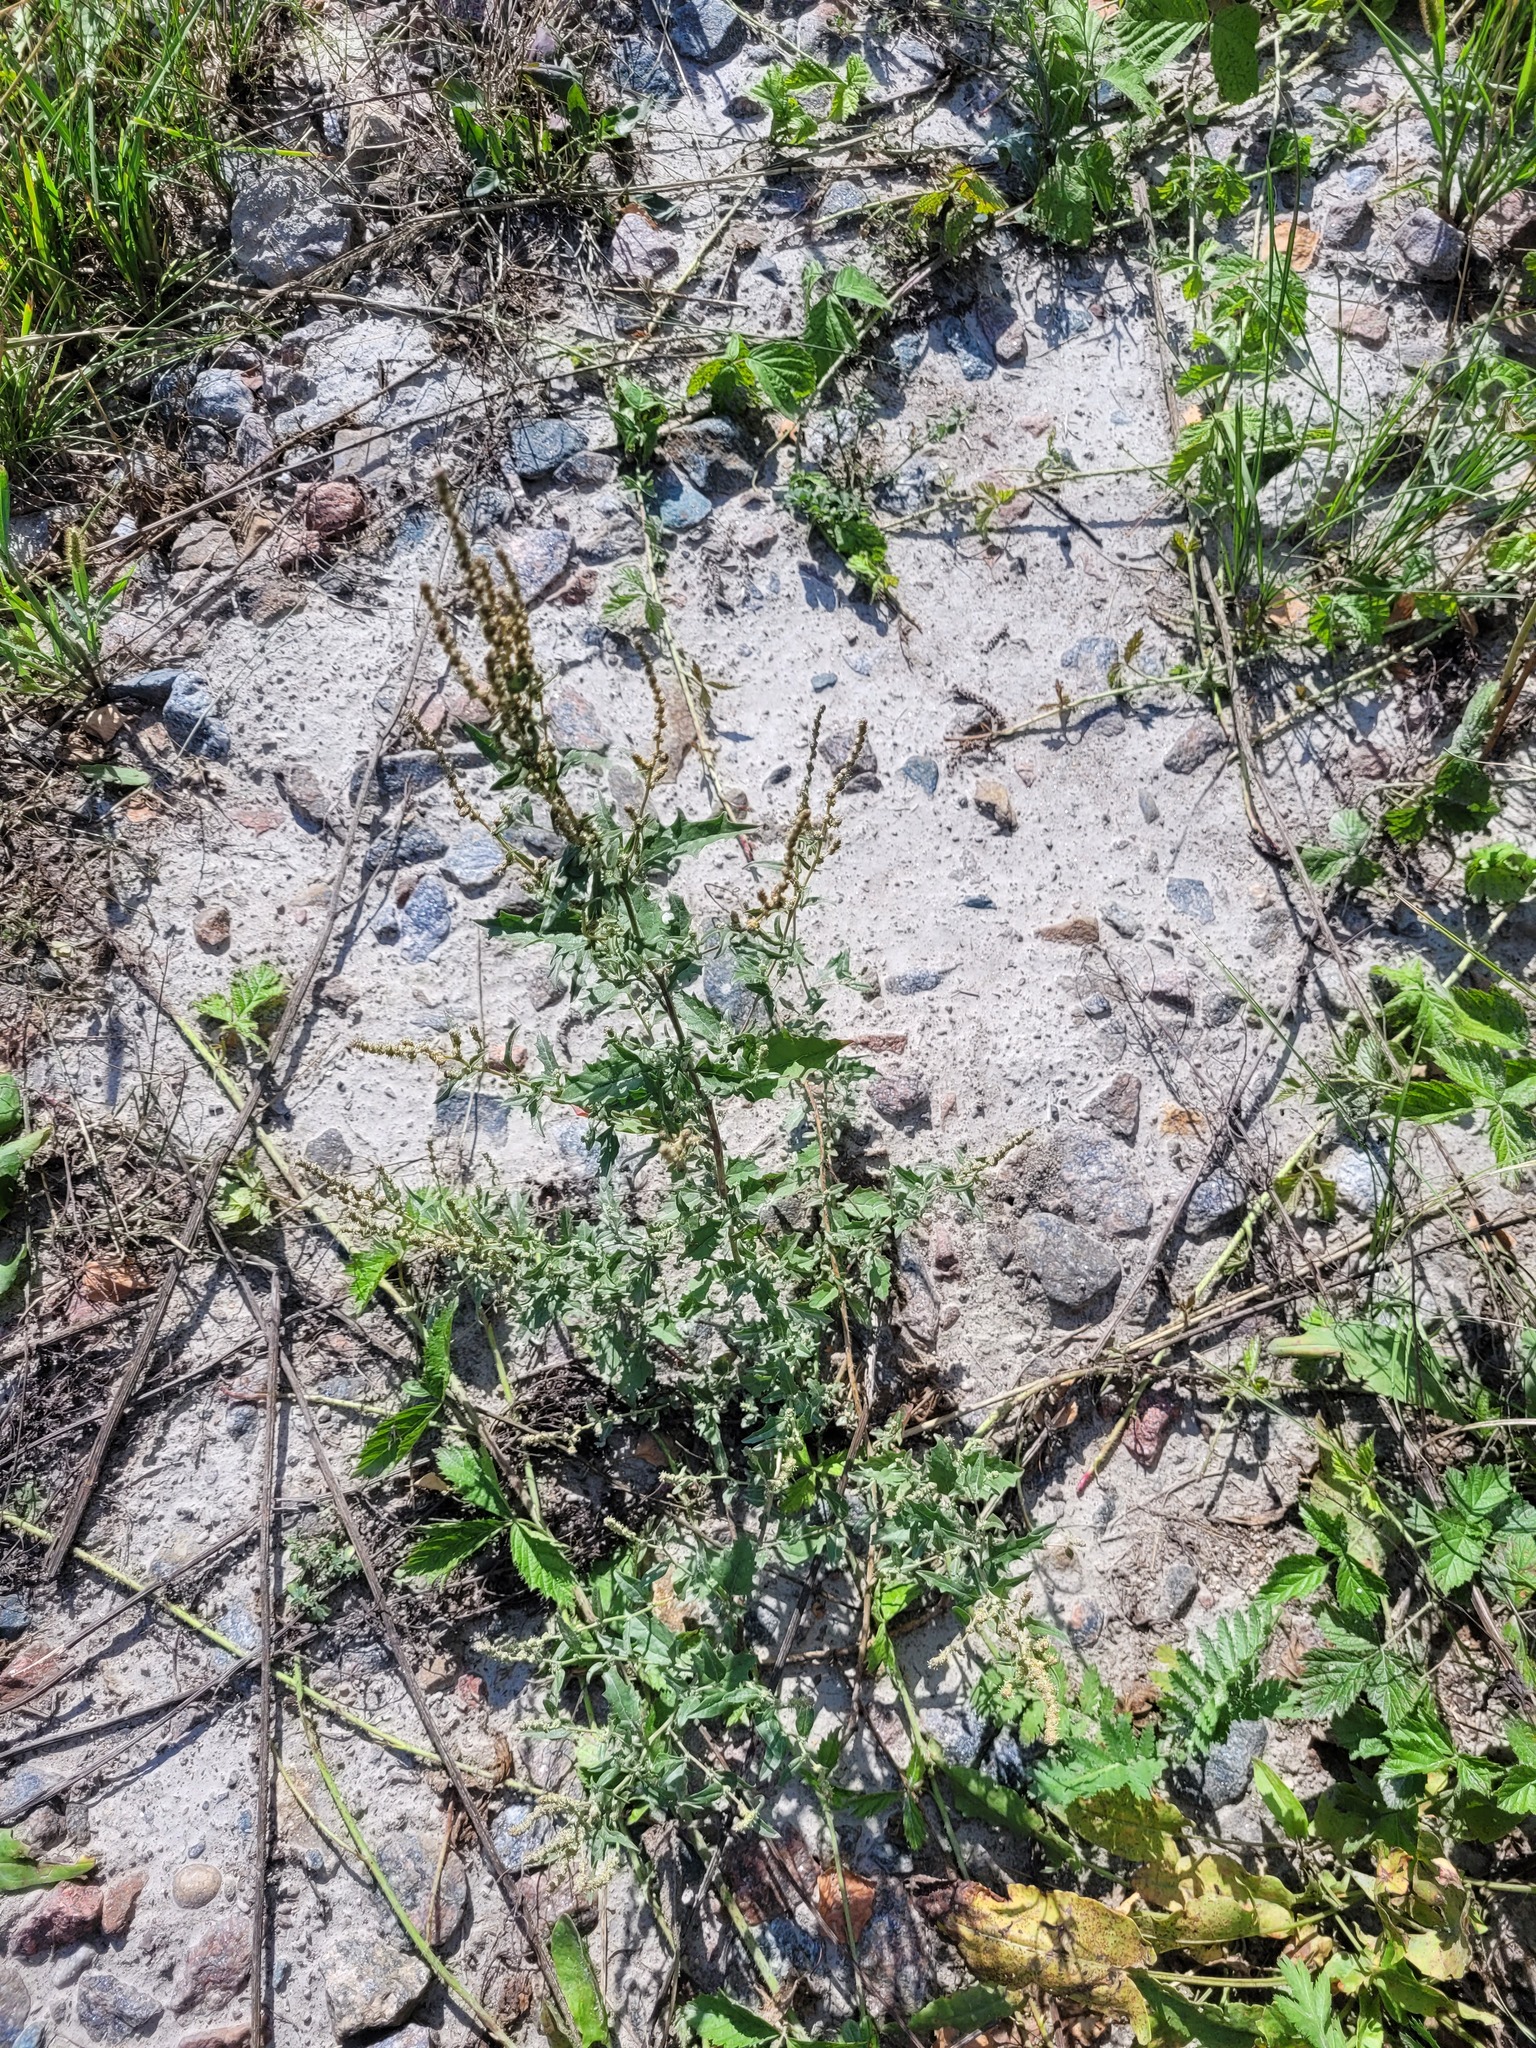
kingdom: Plantae
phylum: Tracheophyta
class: Magnoliopsida
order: Caryophyllales
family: Amaranthaceae
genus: Atriplex
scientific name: Atriplex tatarica
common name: Tatarian orache
